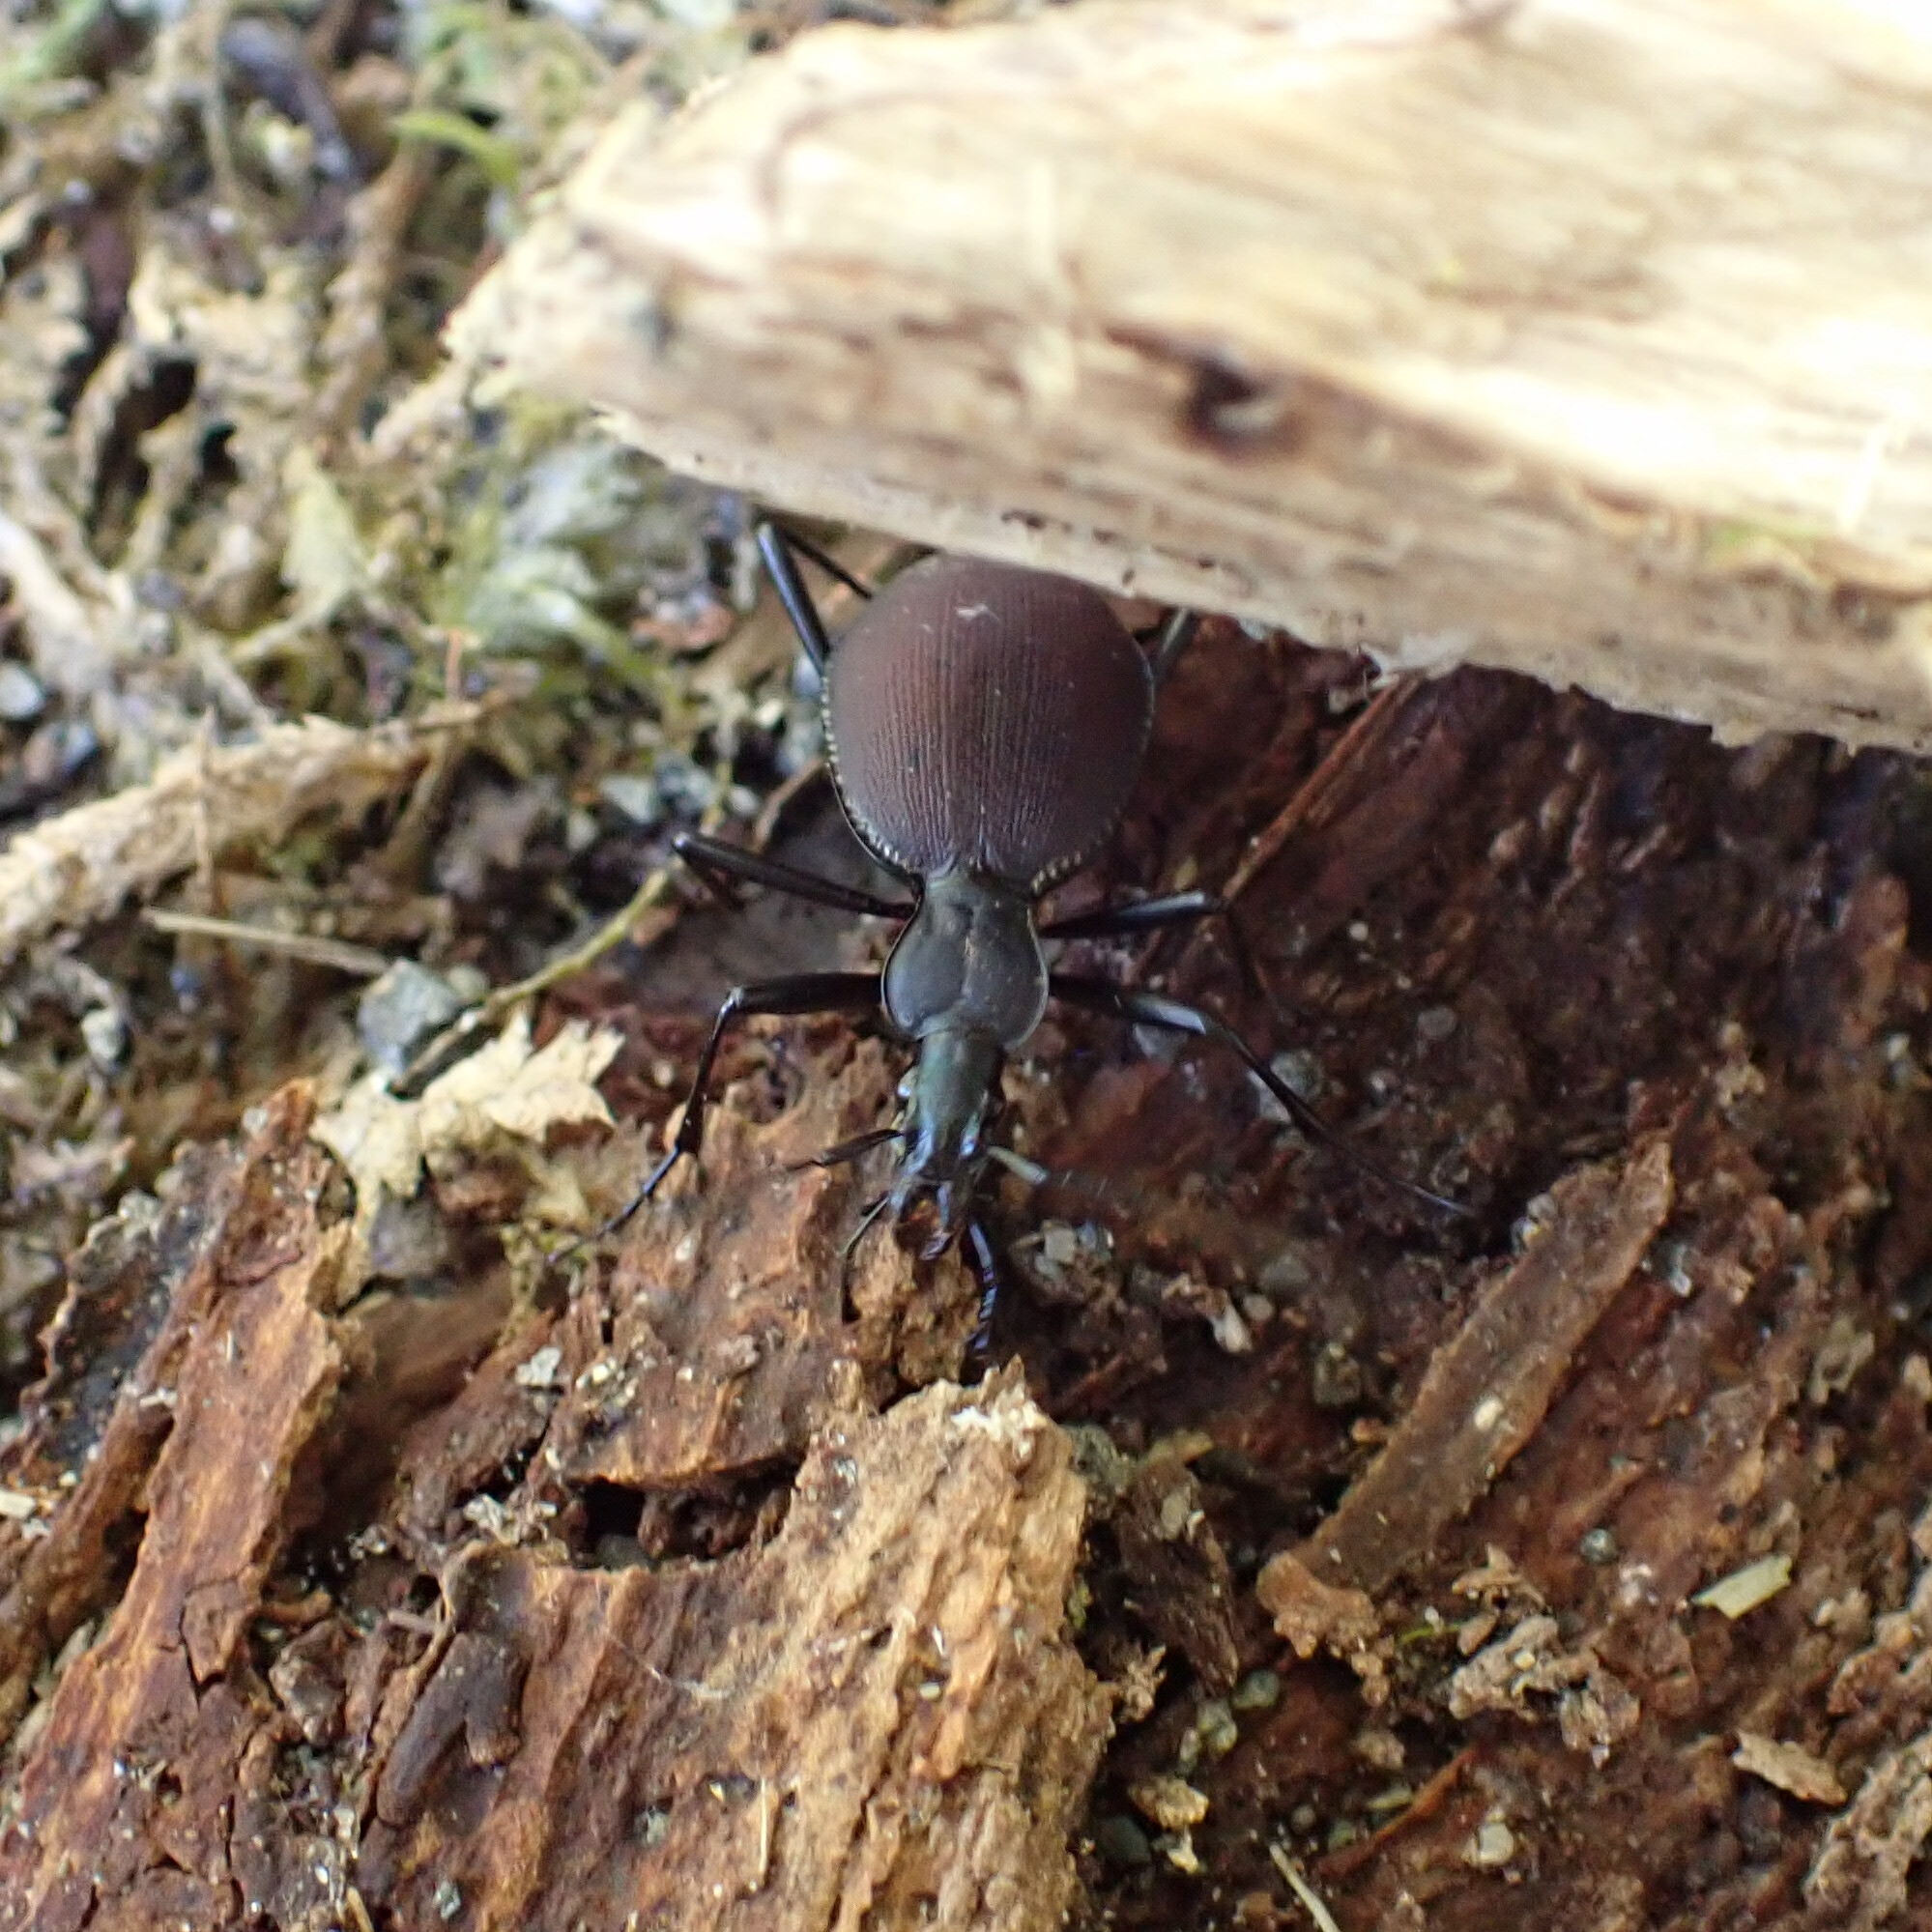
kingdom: Animalia
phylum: Arthropoda
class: Insecta
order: Coleoptera
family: Carabidae
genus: Scaphinotus
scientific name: Scaphinotus angusticollis
